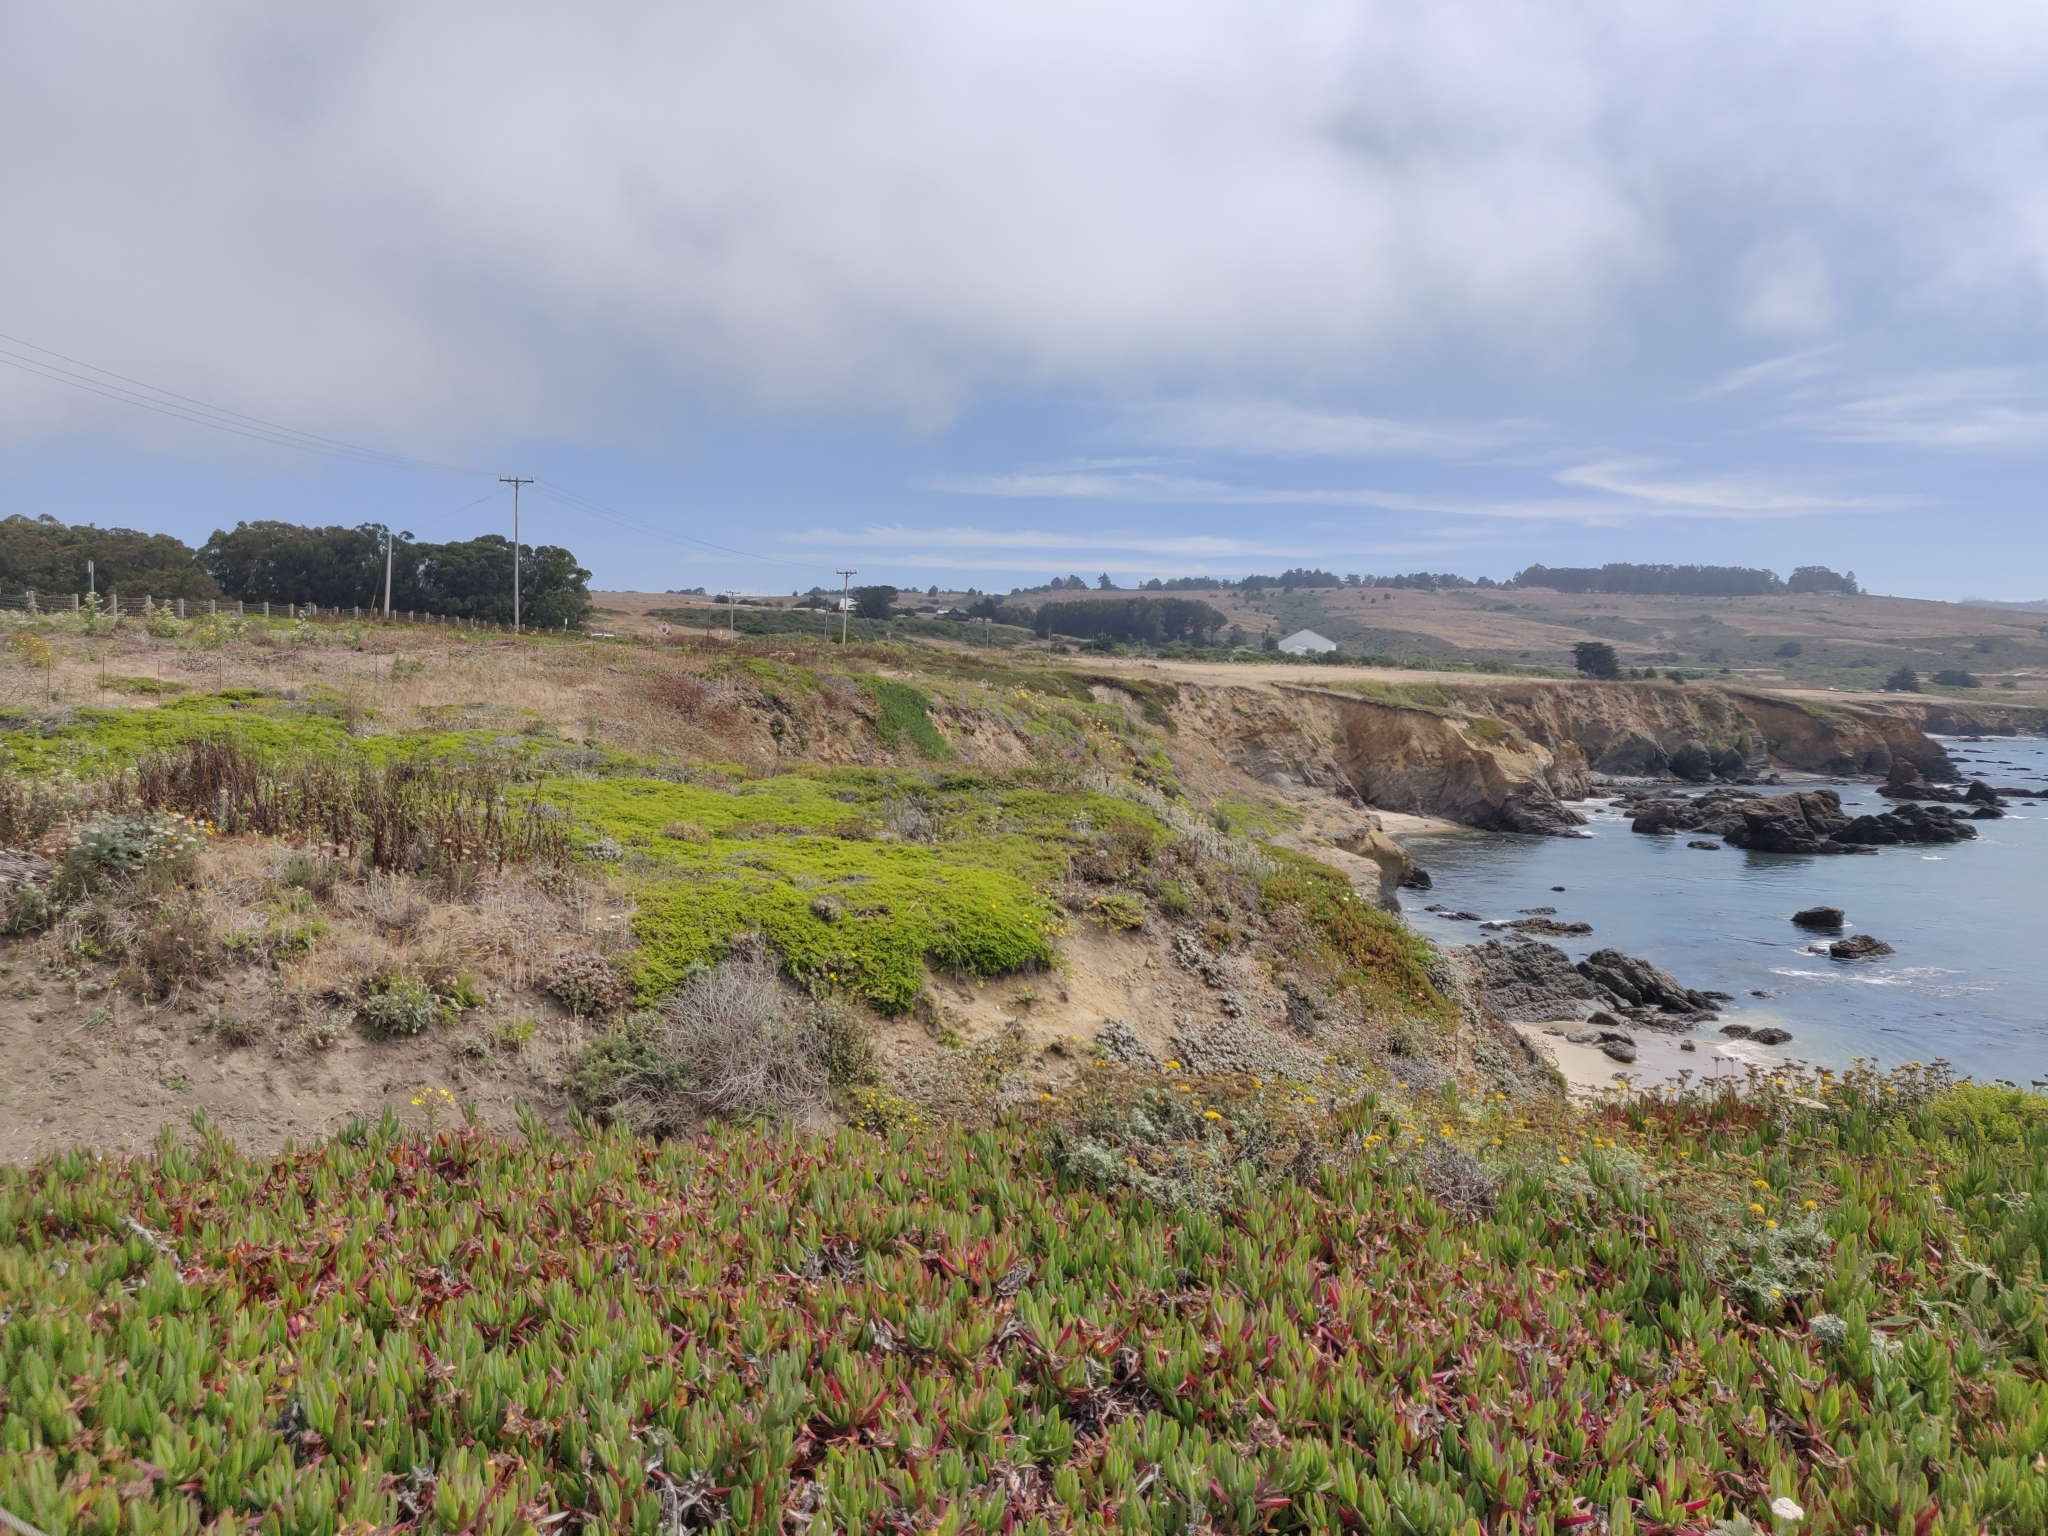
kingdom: Plantae
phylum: Tracheophyta
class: Magnoliopsida
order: Asterales
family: Asteraceae
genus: Baccharis
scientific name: Baccharis pilularis
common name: Coyotebrush
